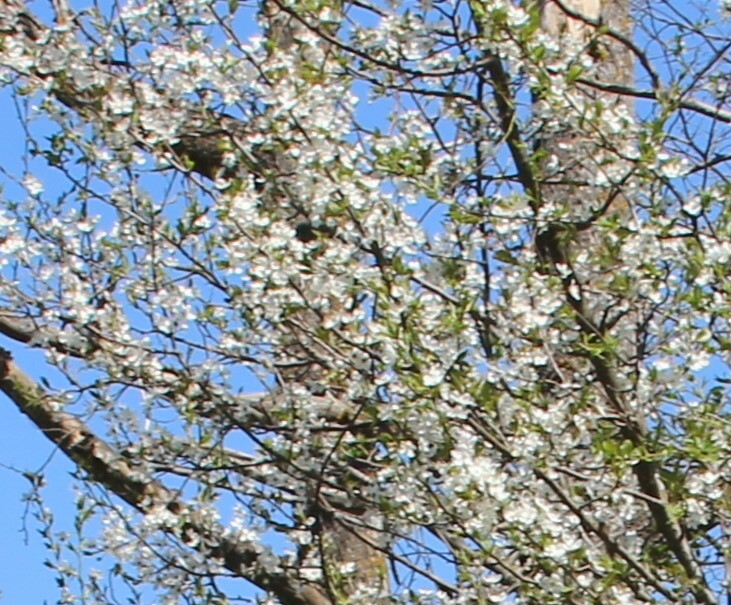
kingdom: Plantae
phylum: Tracheophyta
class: Magnoliopsida
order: Rosales
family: Rosaceae
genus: Prunus
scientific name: Prunus cerasifera
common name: Cherry plum
